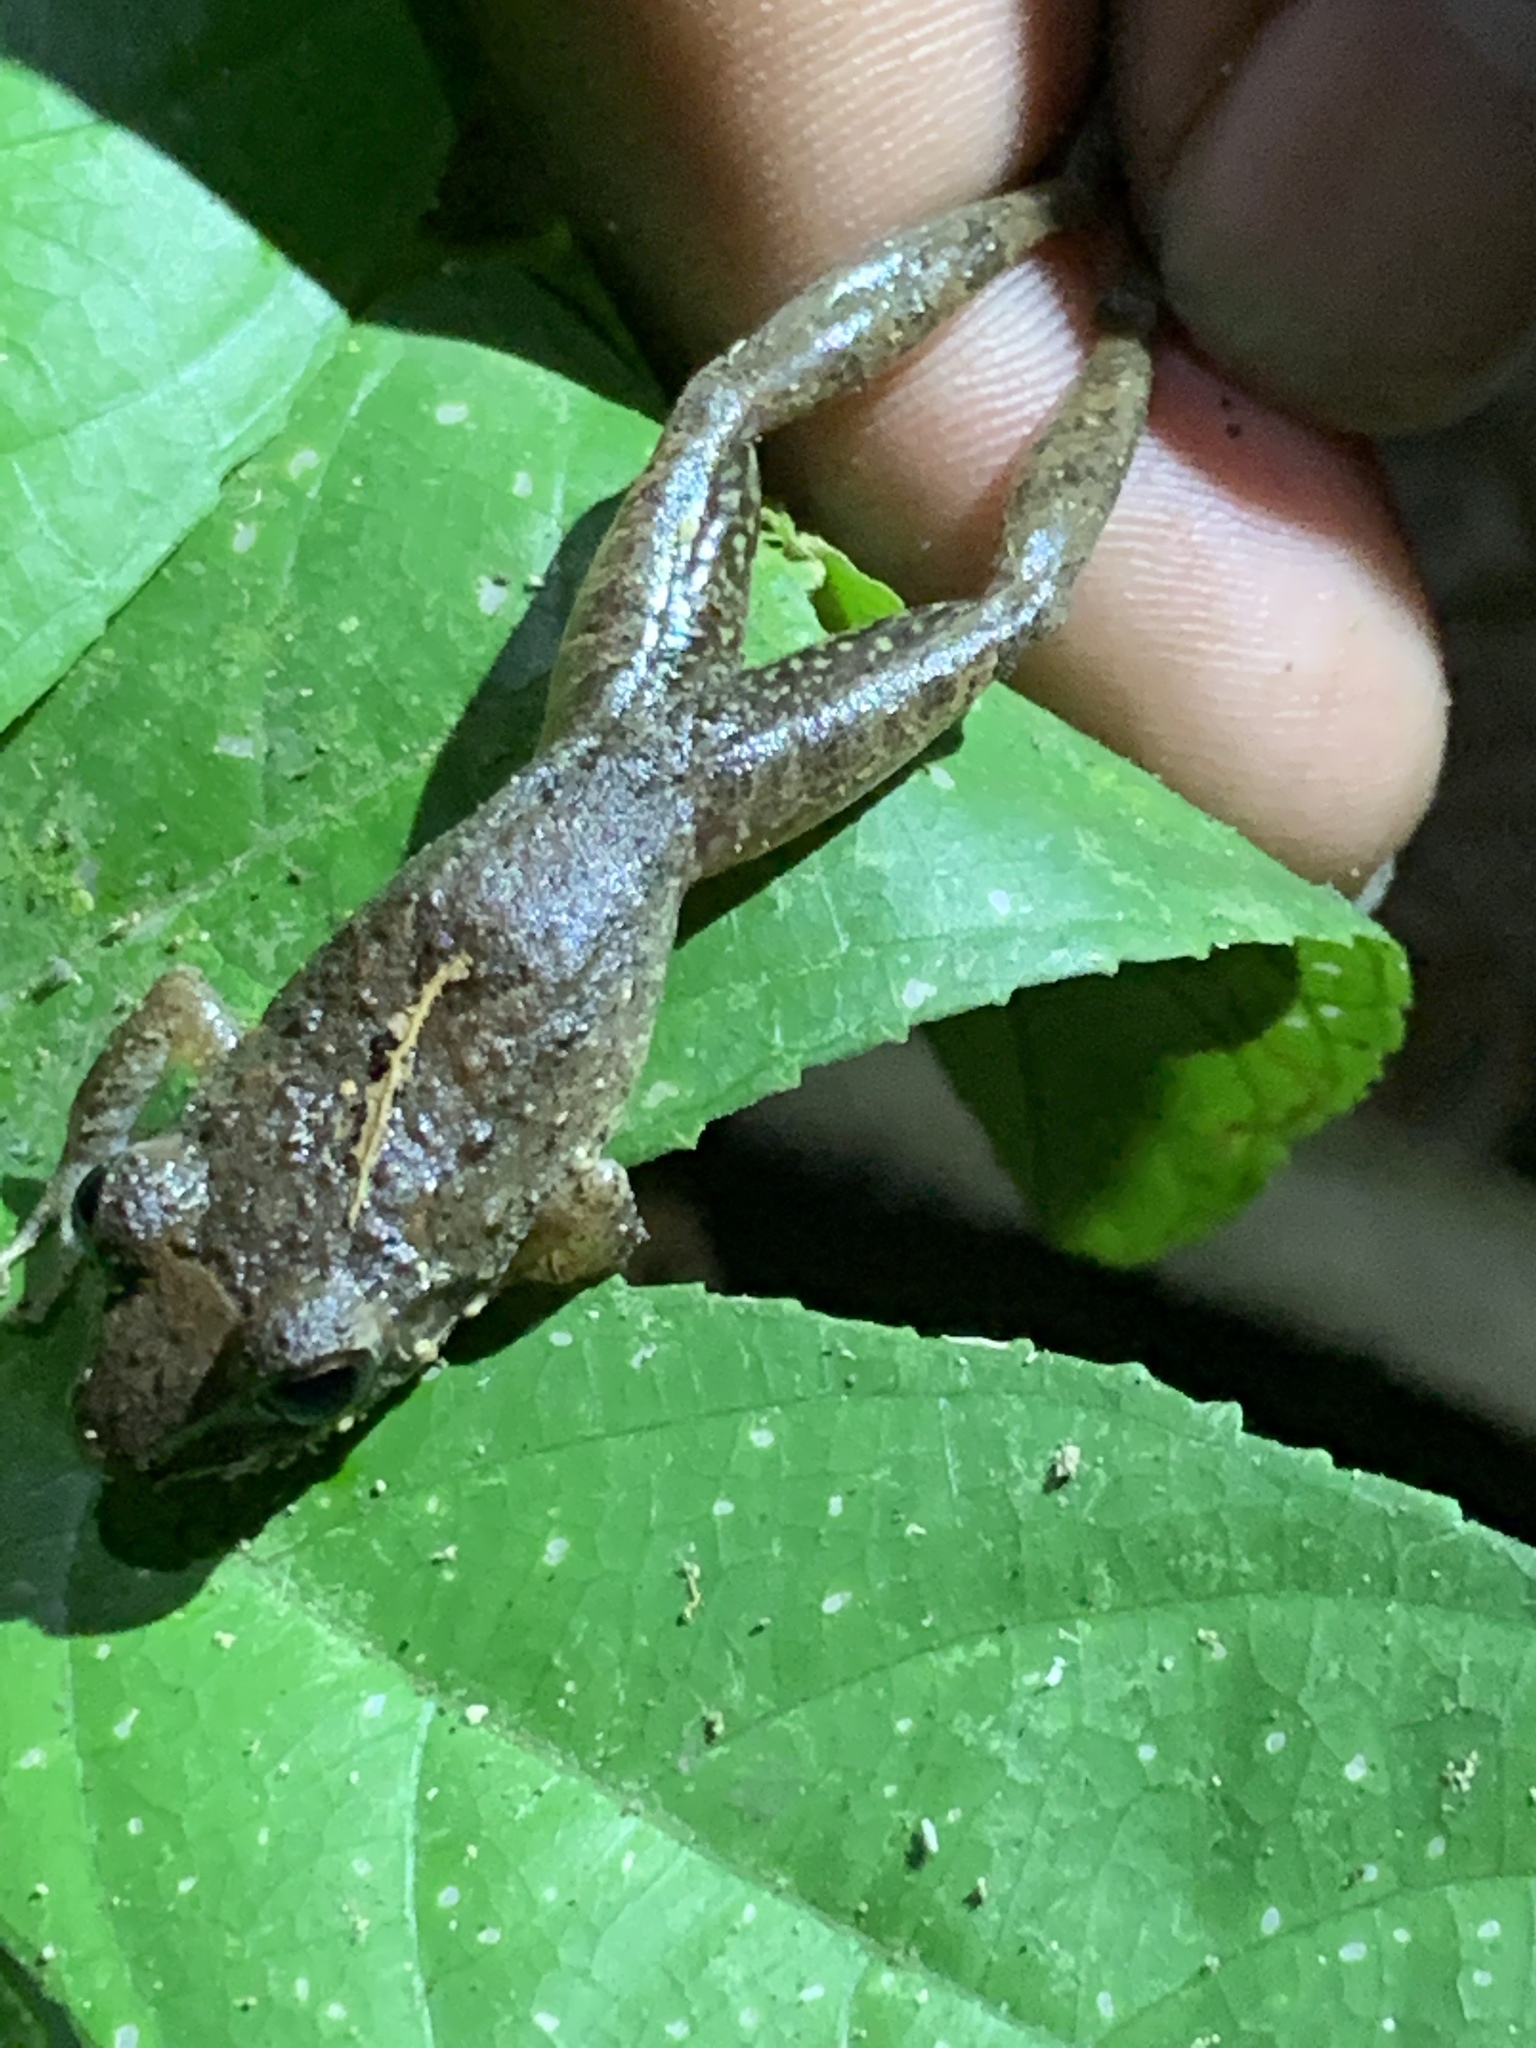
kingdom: Animalia
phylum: Chordata
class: Amphibia
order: Anura
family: Craugastoridae
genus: Craugastor
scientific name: Craugastor fitzingeri
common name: Fitzinger's robber frog
